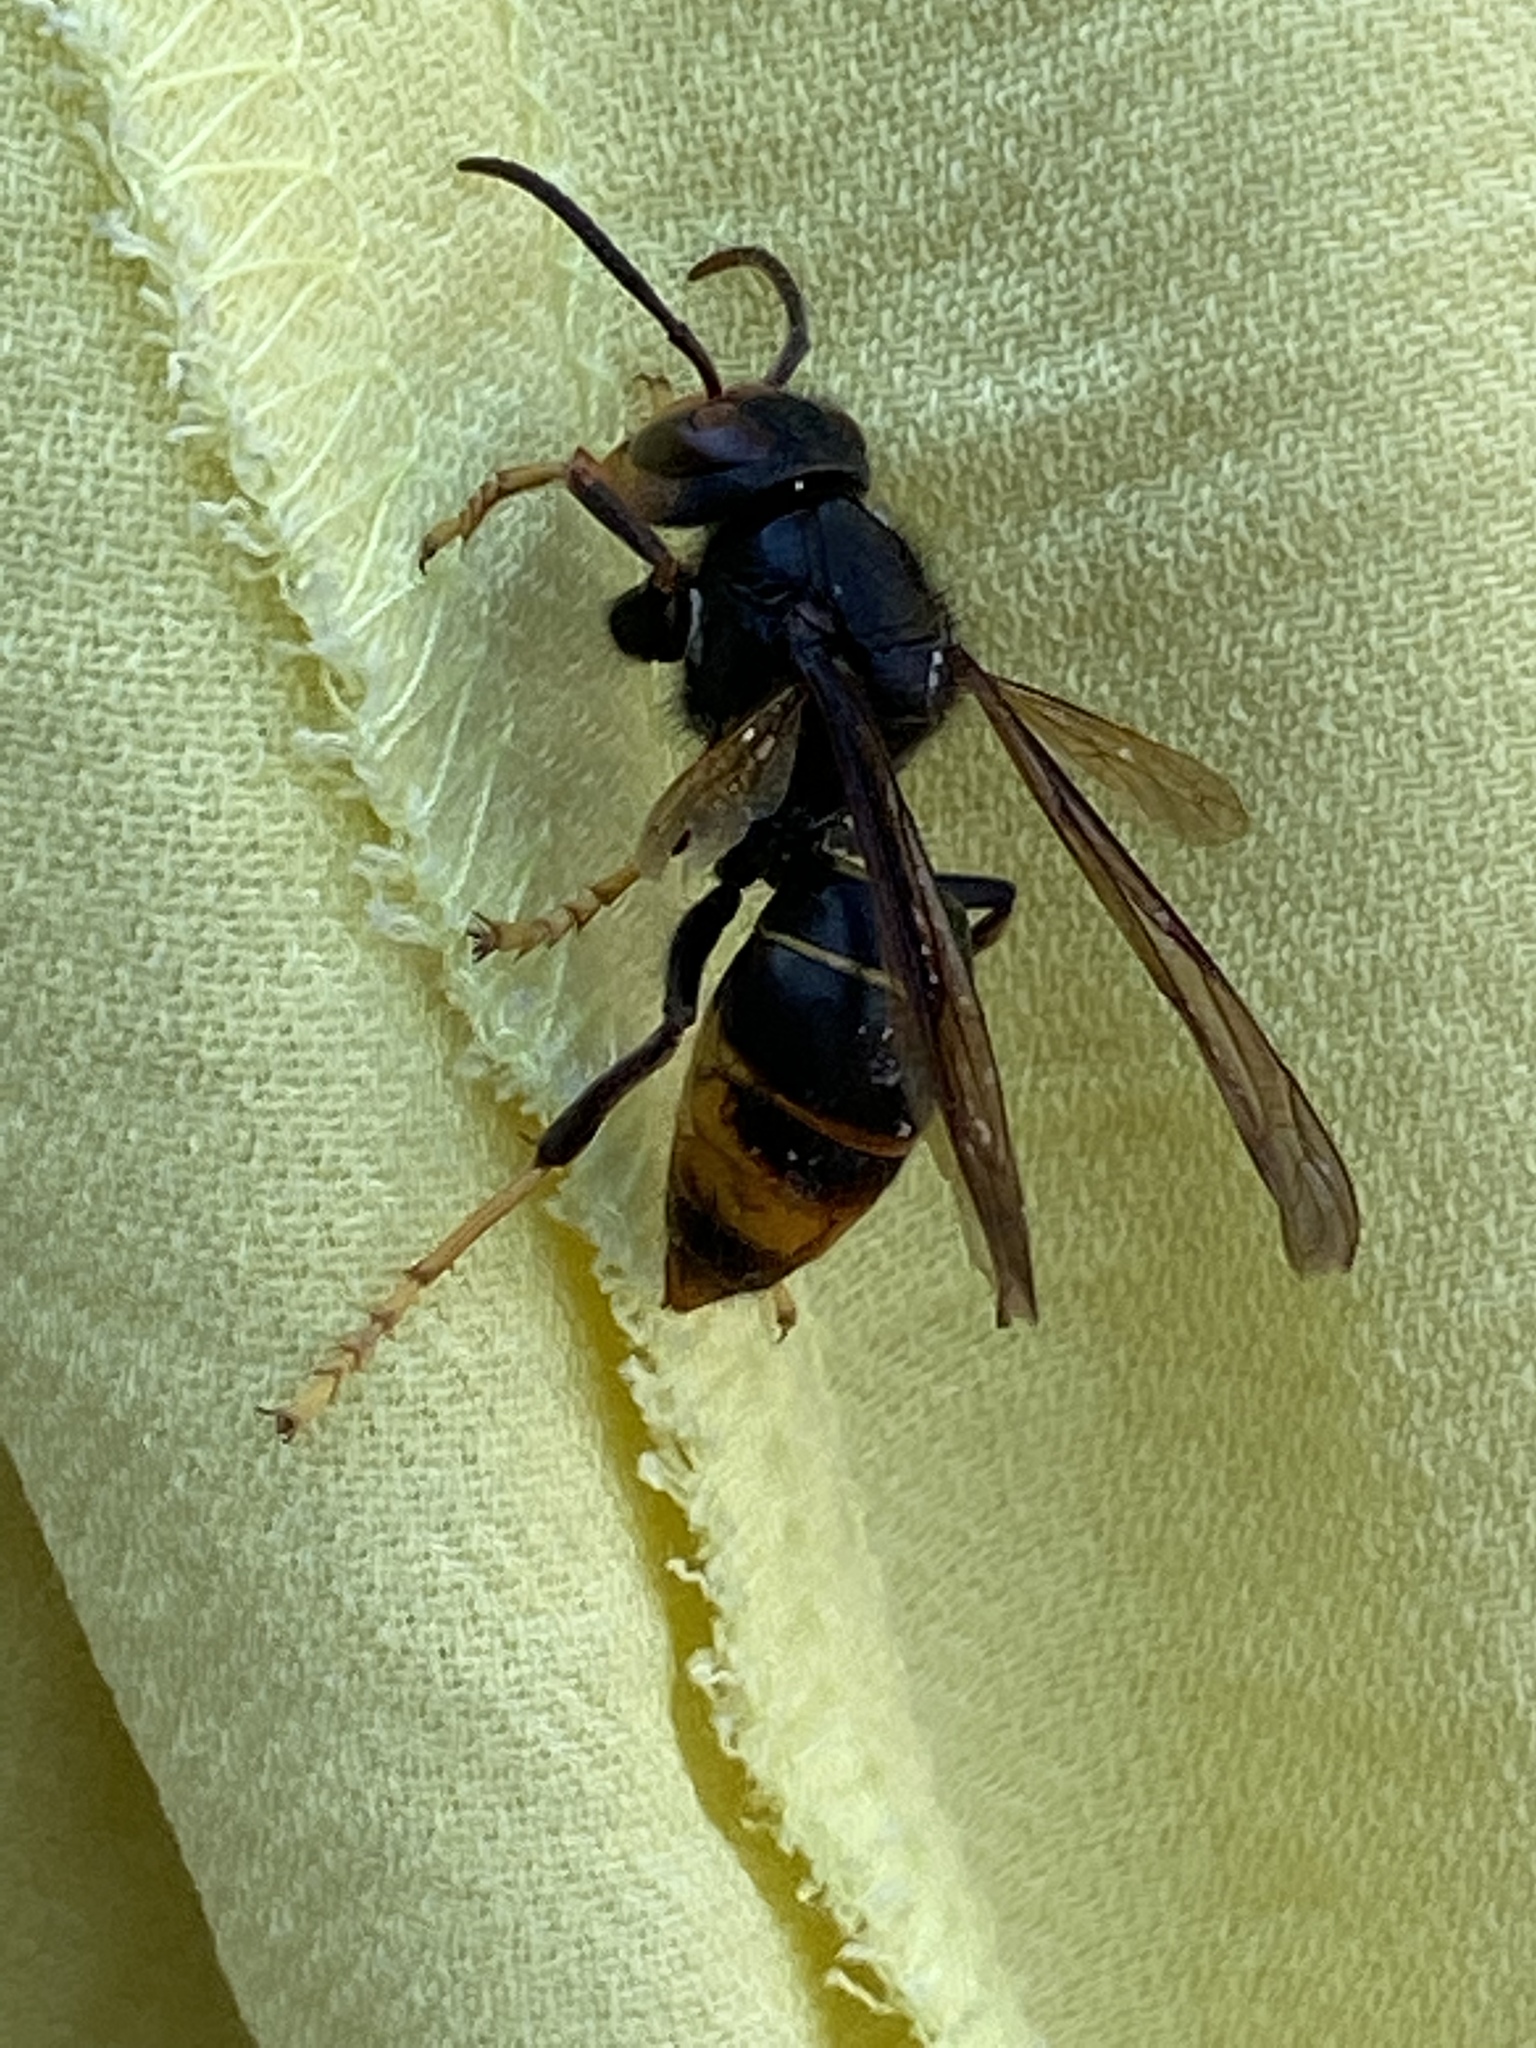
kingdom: Animalia
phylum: Arthropoda
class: Insecta
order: Hymenoptera
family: Vespidae
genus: Vespa
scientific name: Vespa velutina
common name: Asian hornet
